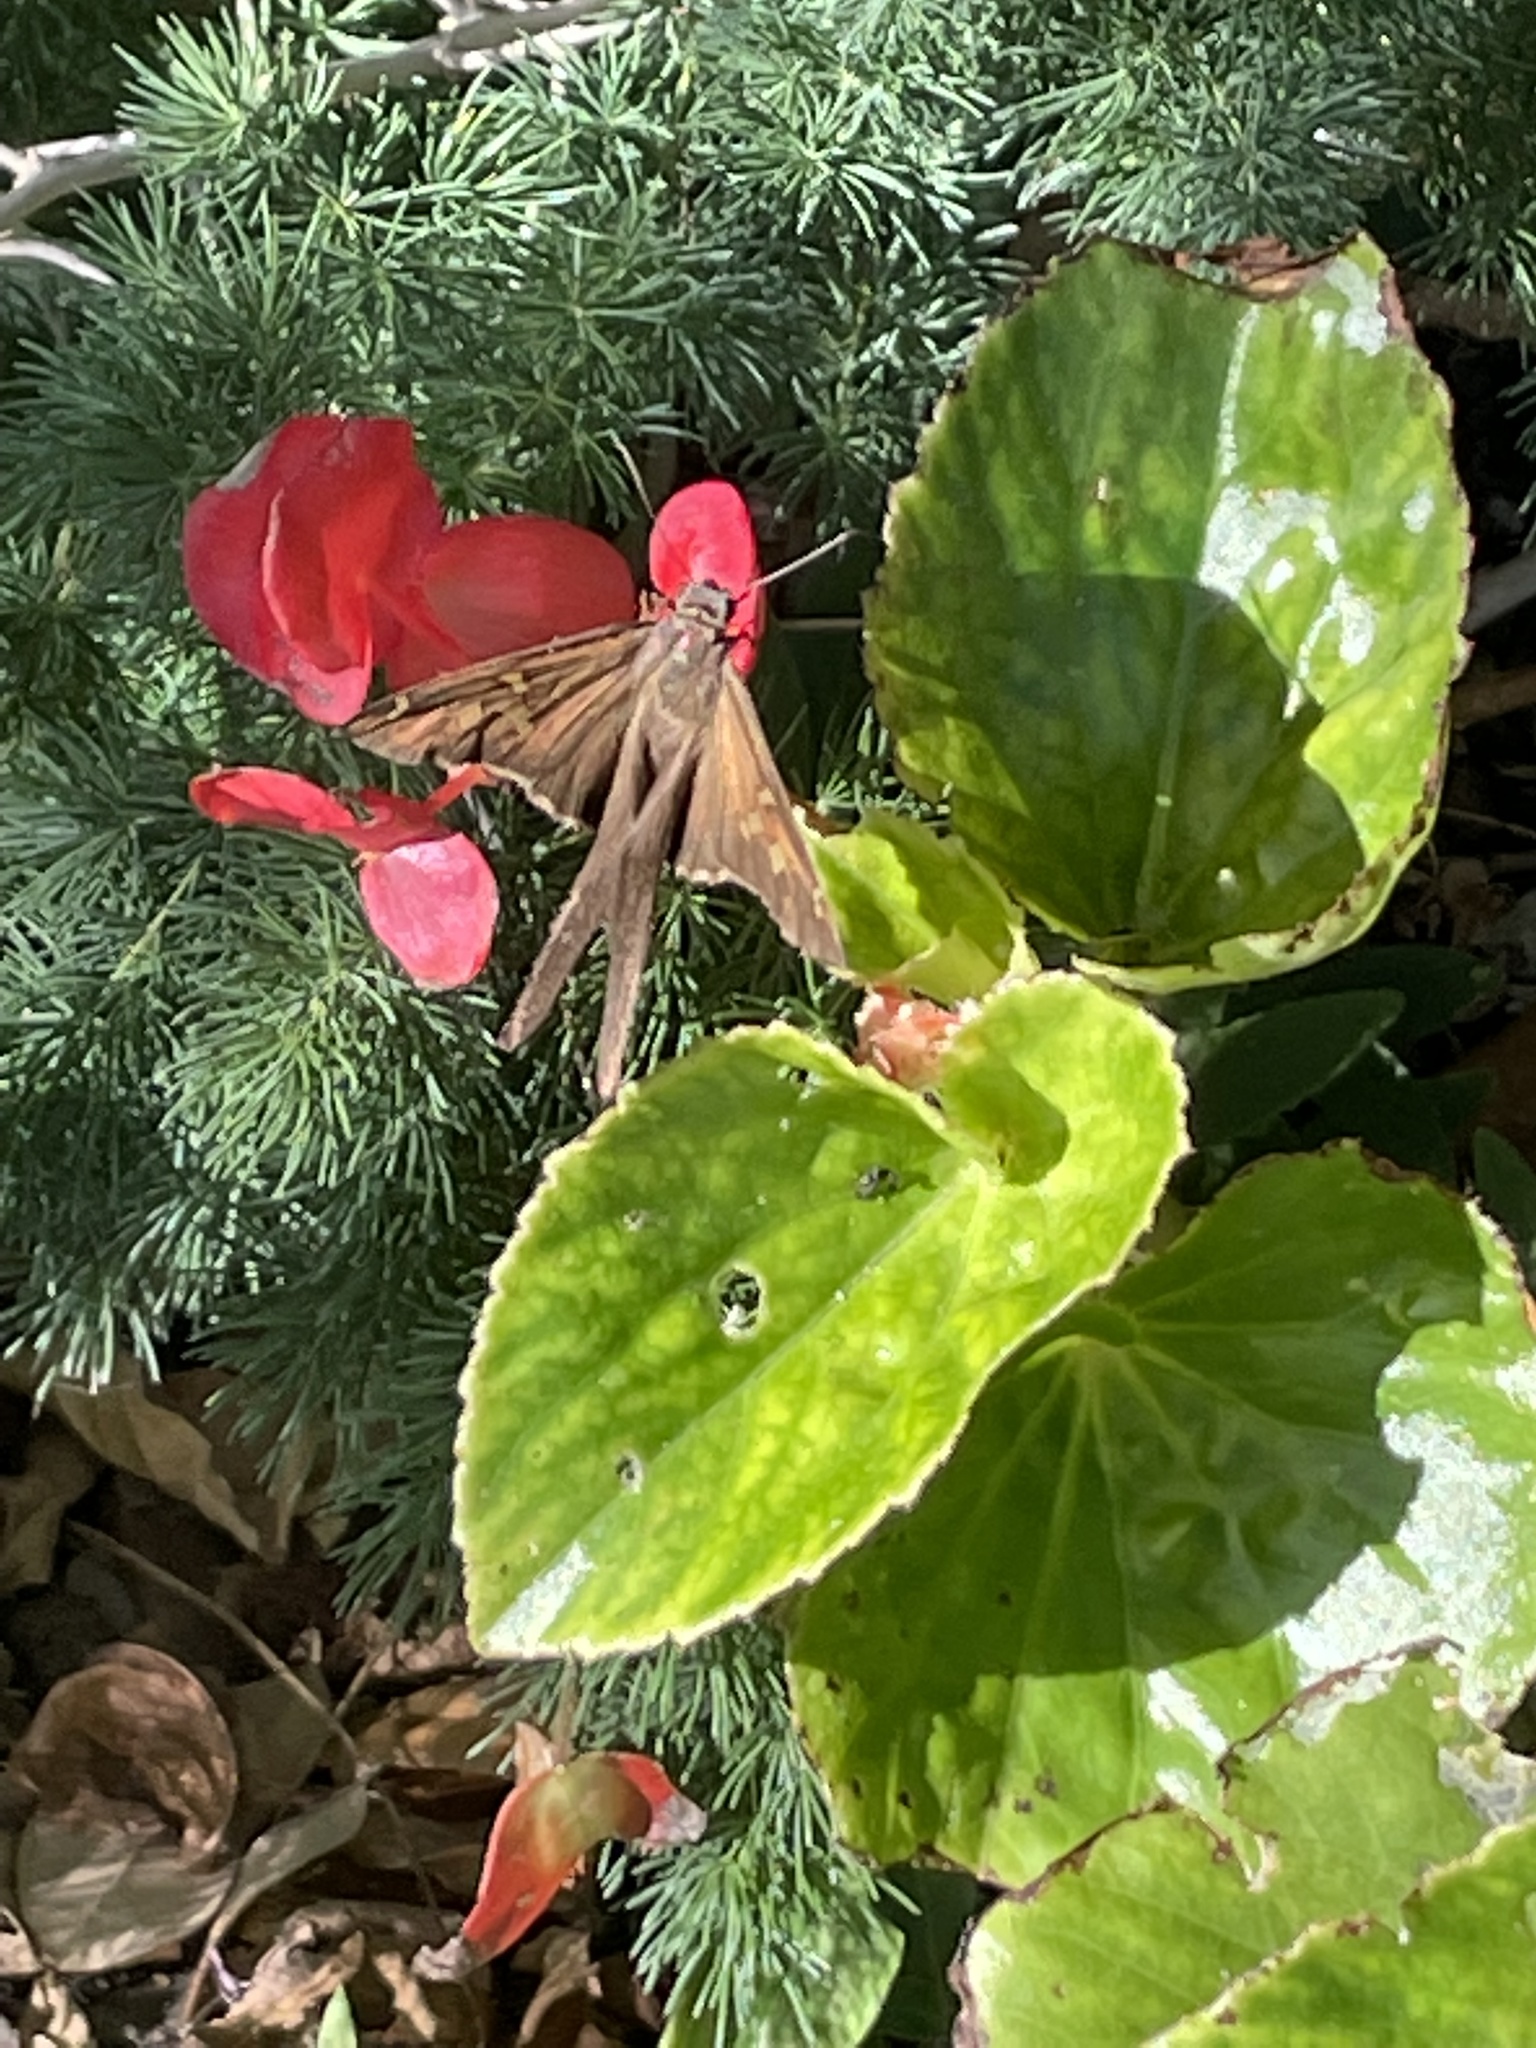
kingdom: Animalia
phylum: Arthropoda
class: Insecta
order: Lepidoptera
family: Hesperiidae
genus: Chioides
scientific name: Chioides catillus
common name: Silverbanded skipper
